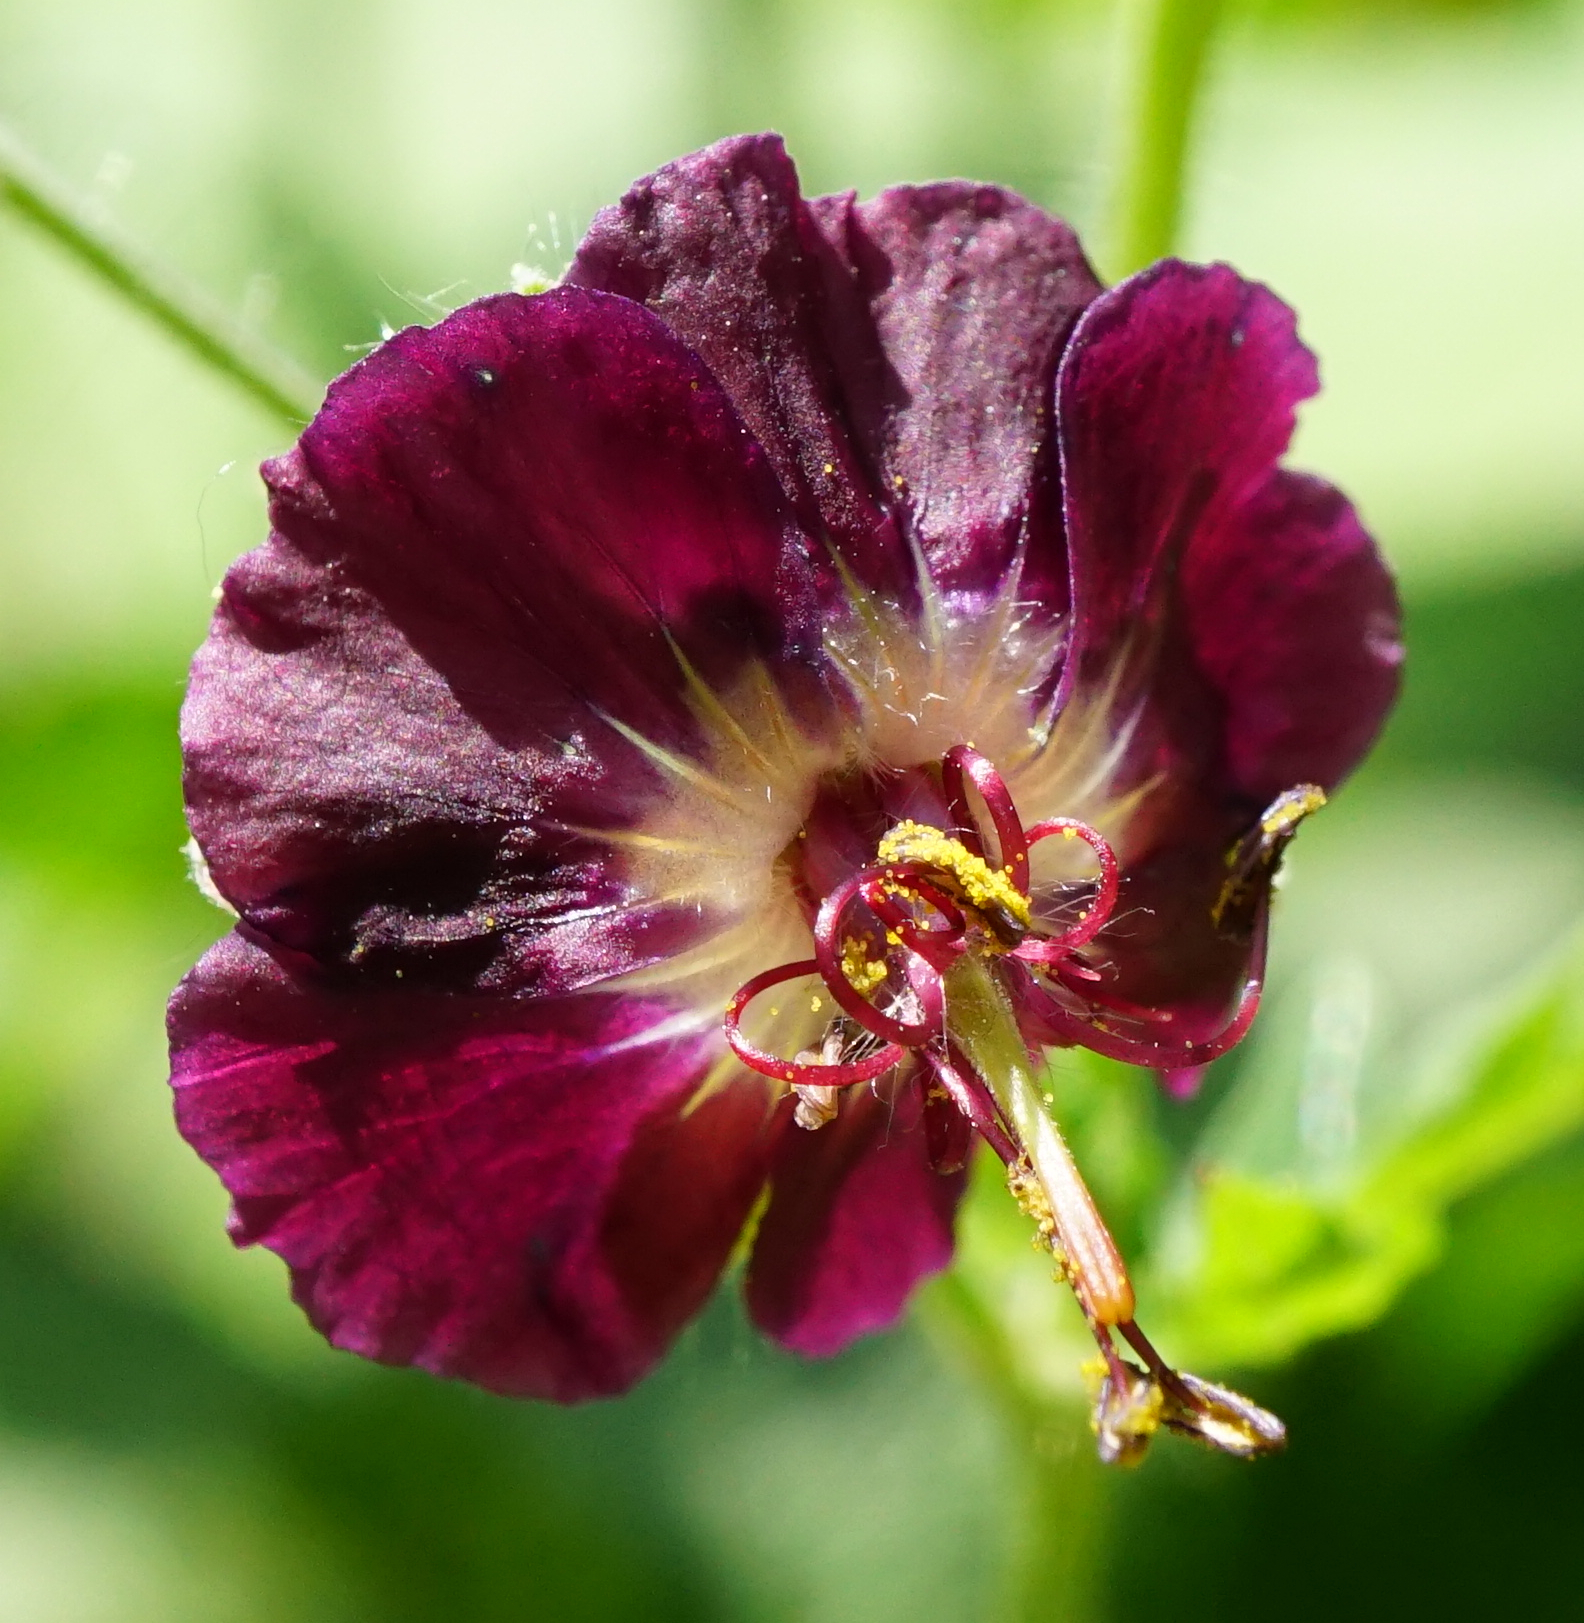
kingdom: Plantae
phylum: Tracheophyta
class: Magnoliopsida
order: Geraniales
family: Geraniaceae
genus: Geranium
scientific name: Geranium phaeum
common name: Dusky crane's-bill
